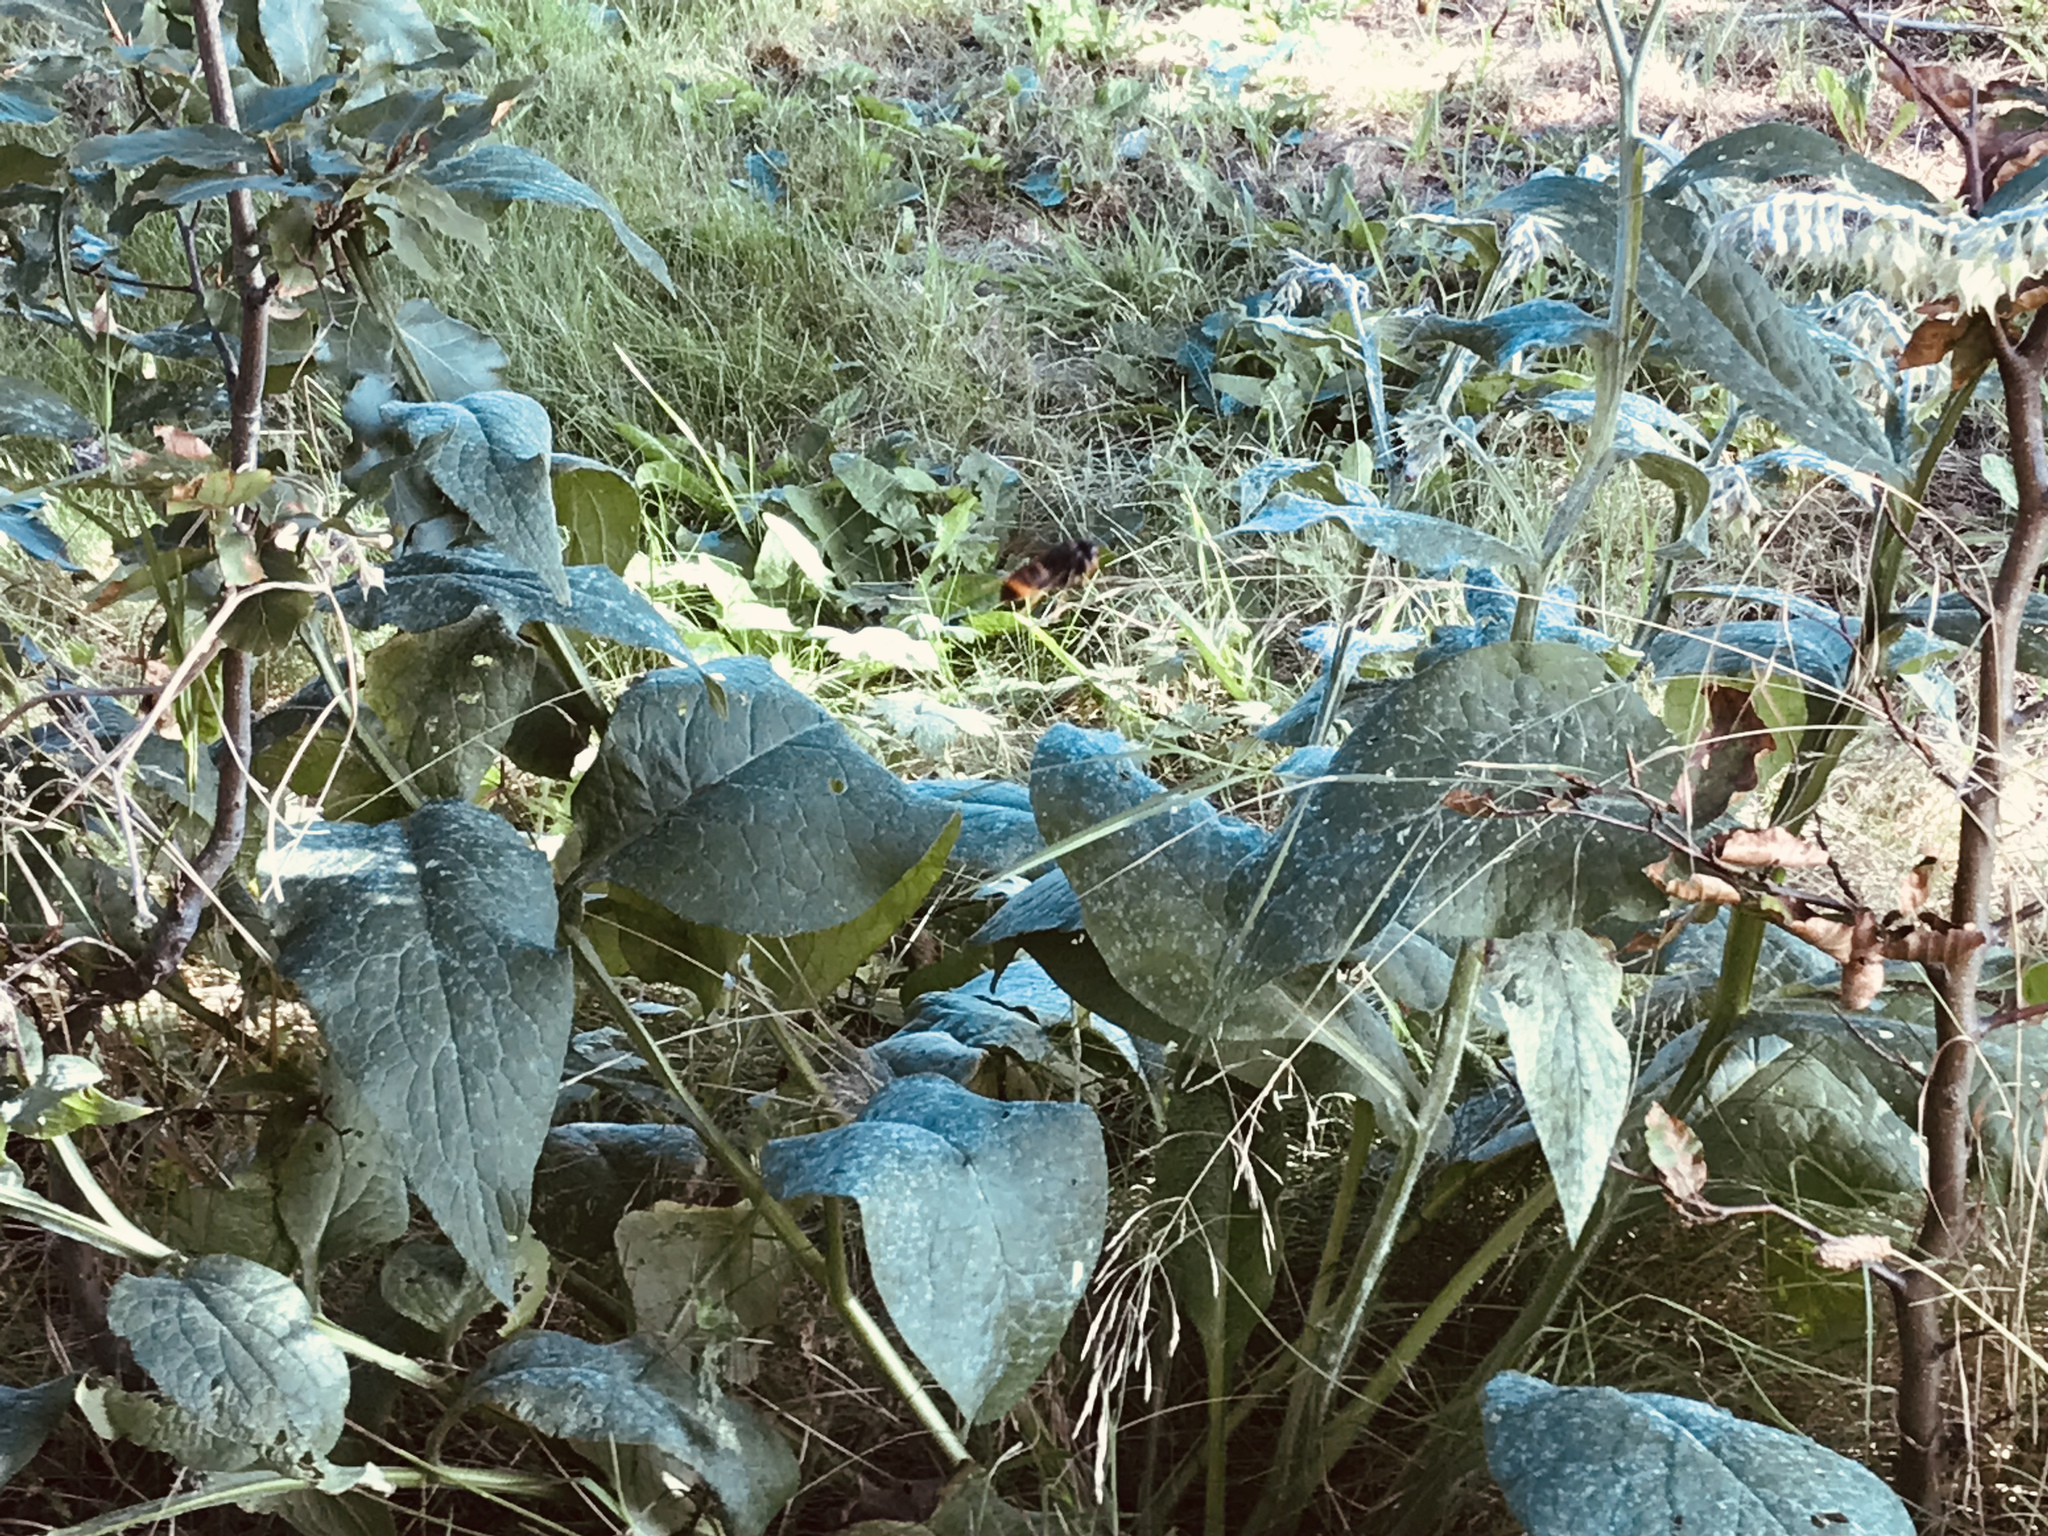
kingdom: Animalia
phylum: Arthropoda
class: Insecta
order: Hymenoptera
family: Vespidae
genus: Vespa
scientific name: Vespa velutina
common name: Asian hornet
